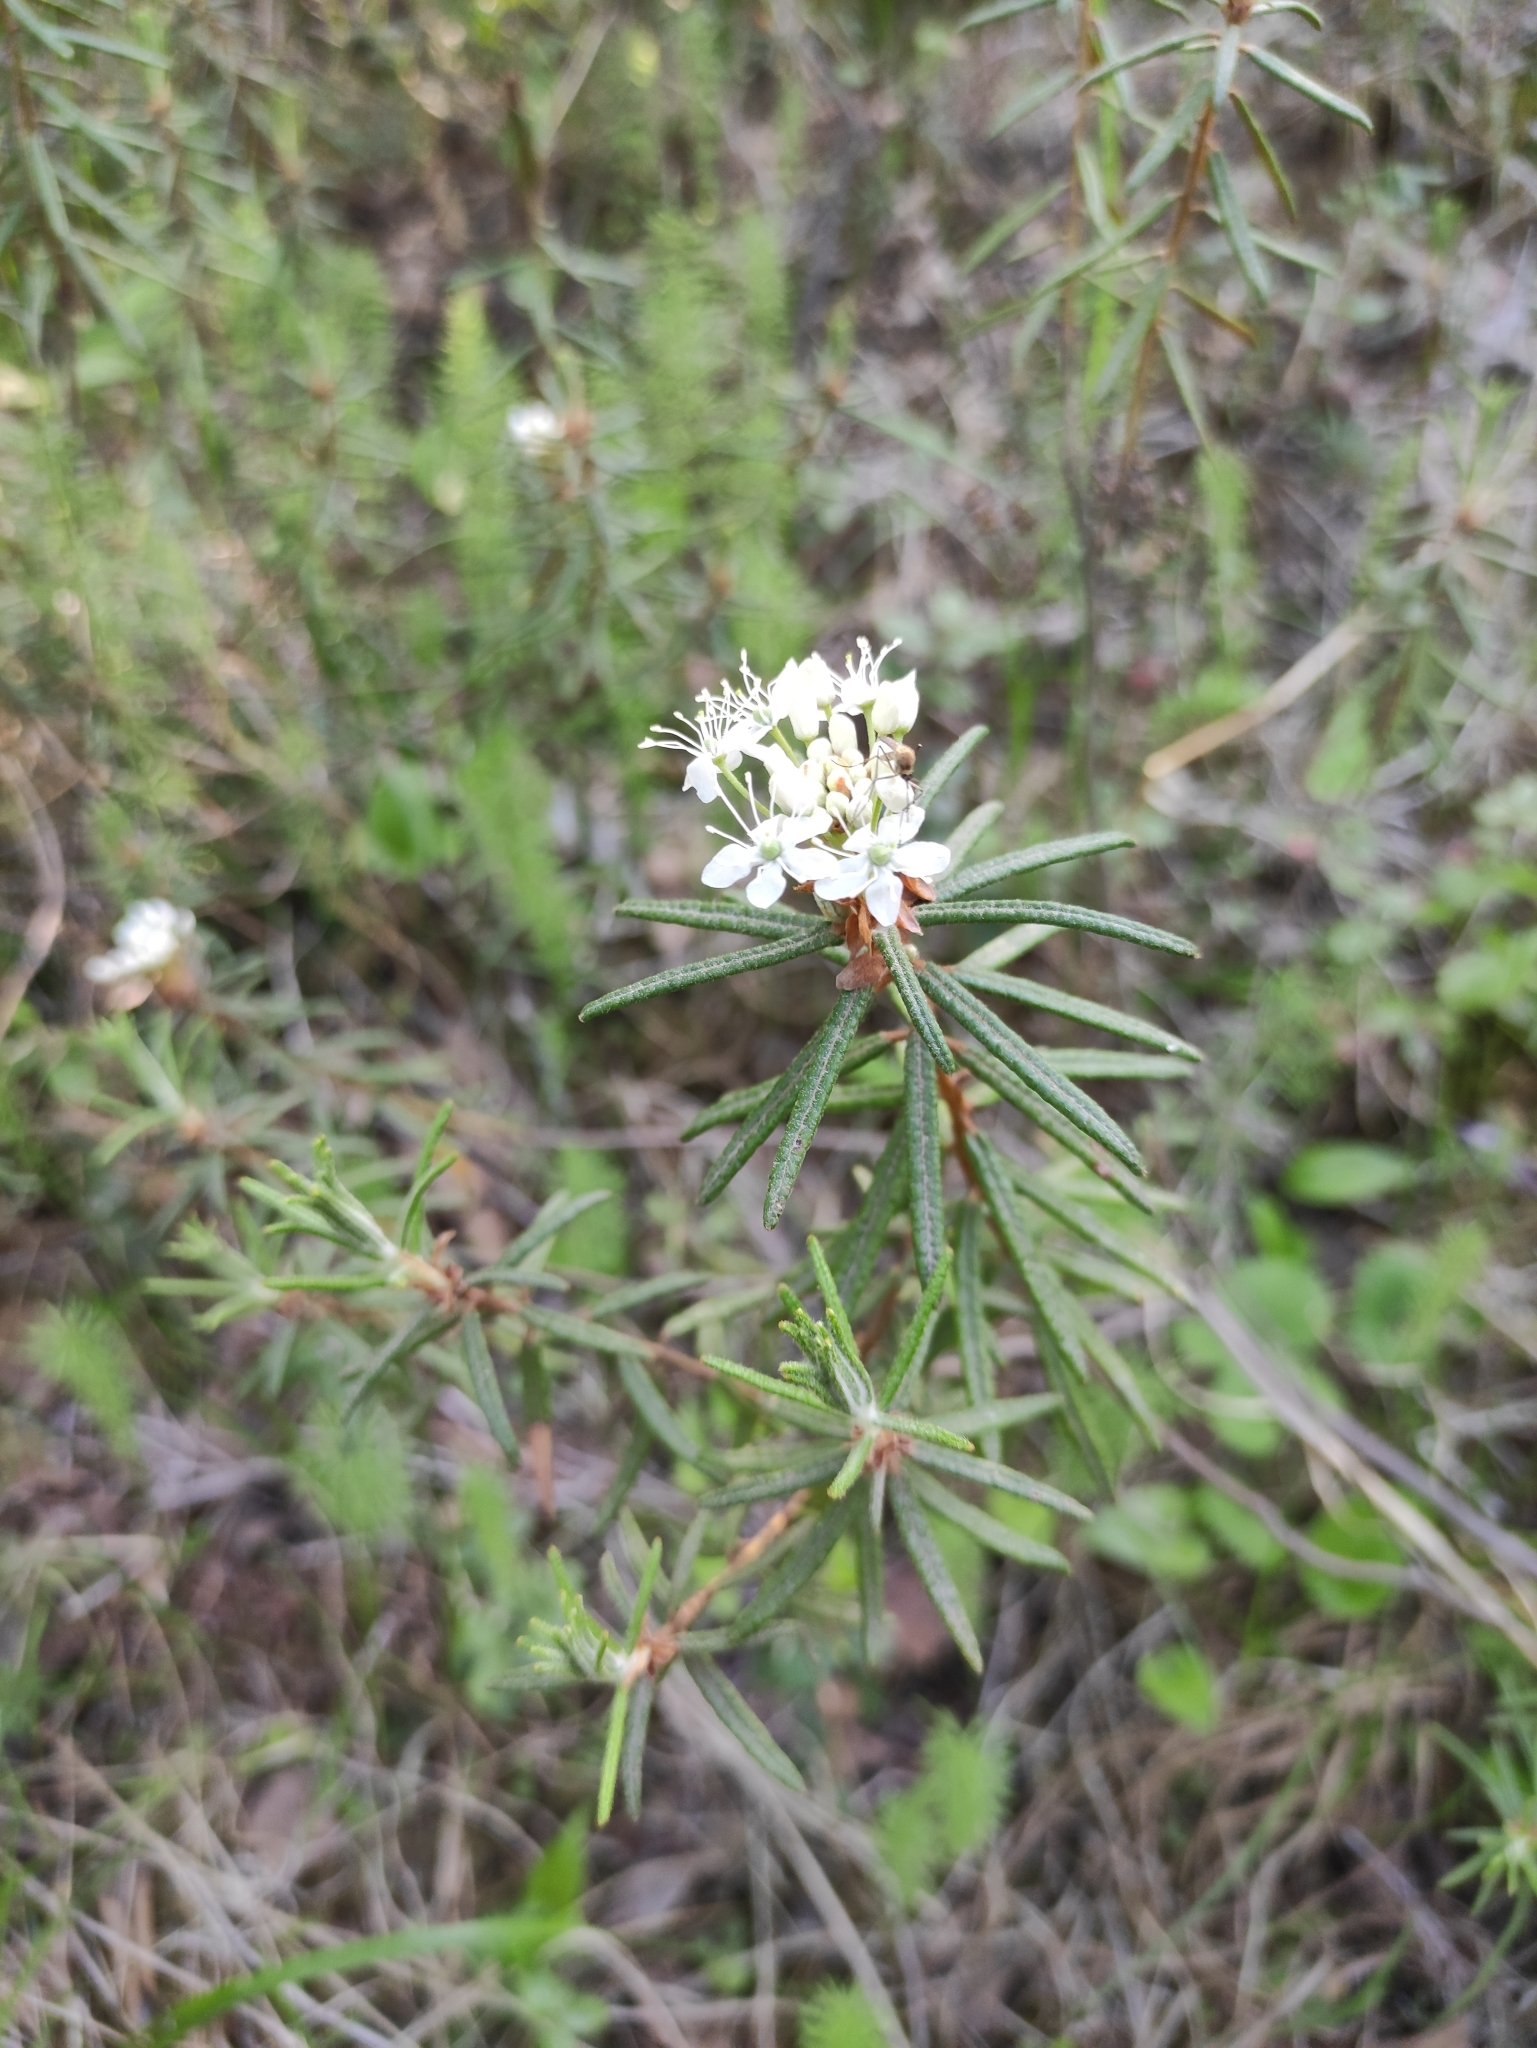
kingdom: Plantae
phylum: Tracheophyta
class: Magnoliopsida
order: Ericales
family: Ericaceae
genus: Rhododendron
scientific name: Rhododendron tomentosum
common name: Marsh labrador tea
